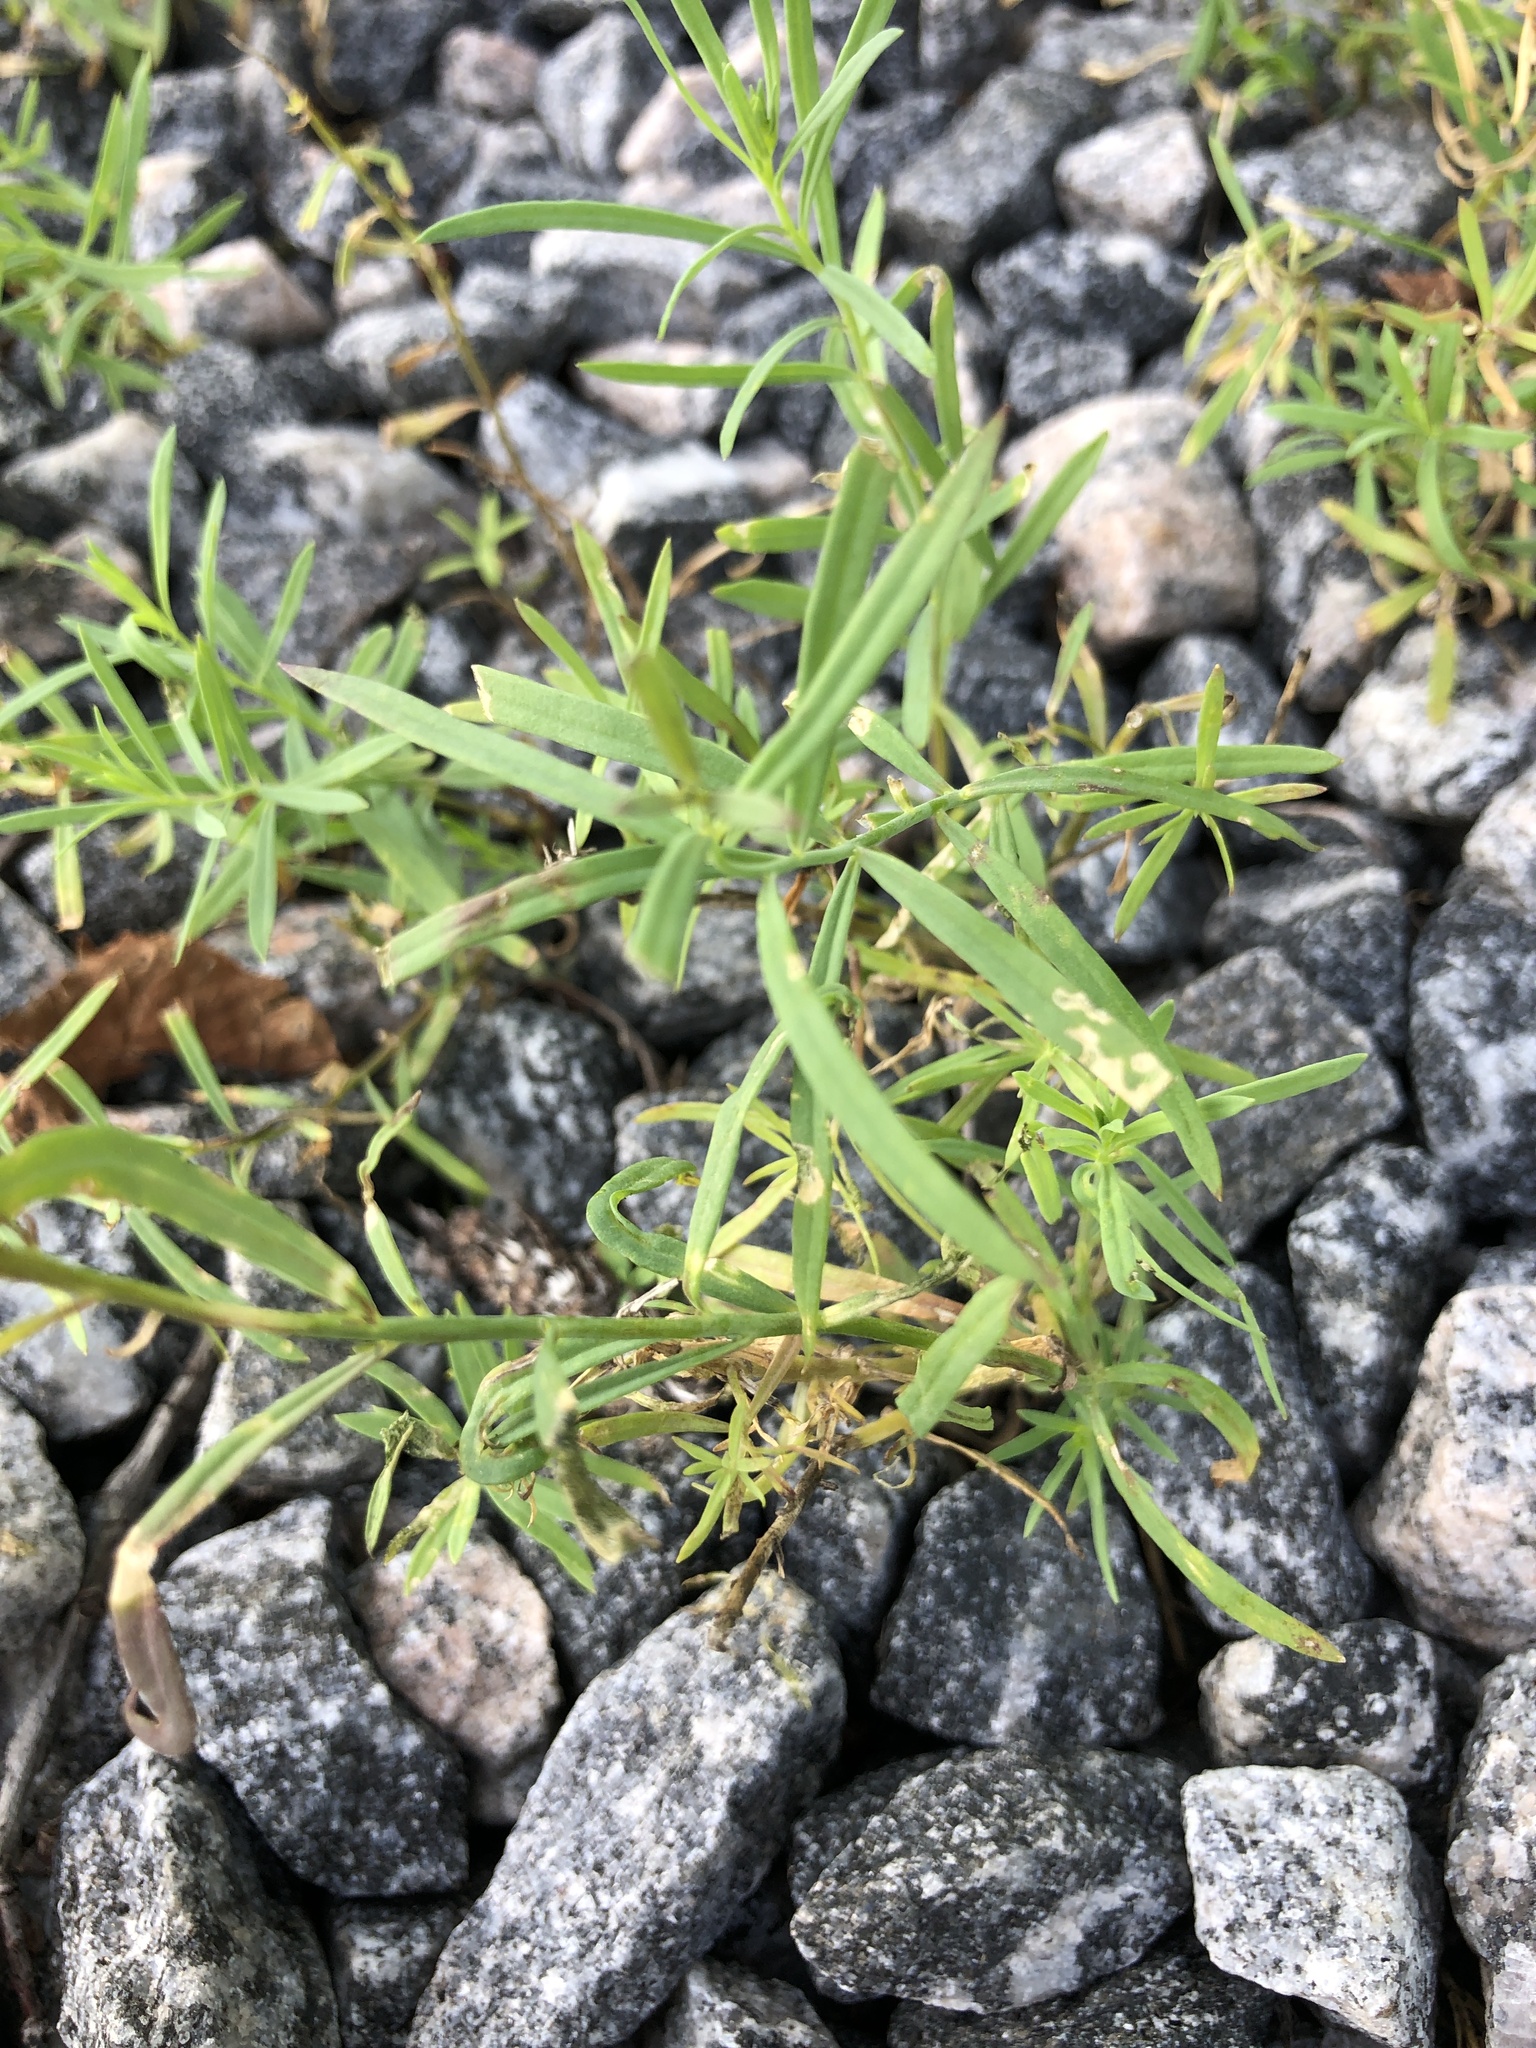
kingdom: Plantae
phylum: Tracheophyta
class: Magnoliopsida
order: Lamiales
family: Plantaginaceae
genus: Linaria
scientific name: Linaria vulgaris
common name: Butter and eggs
